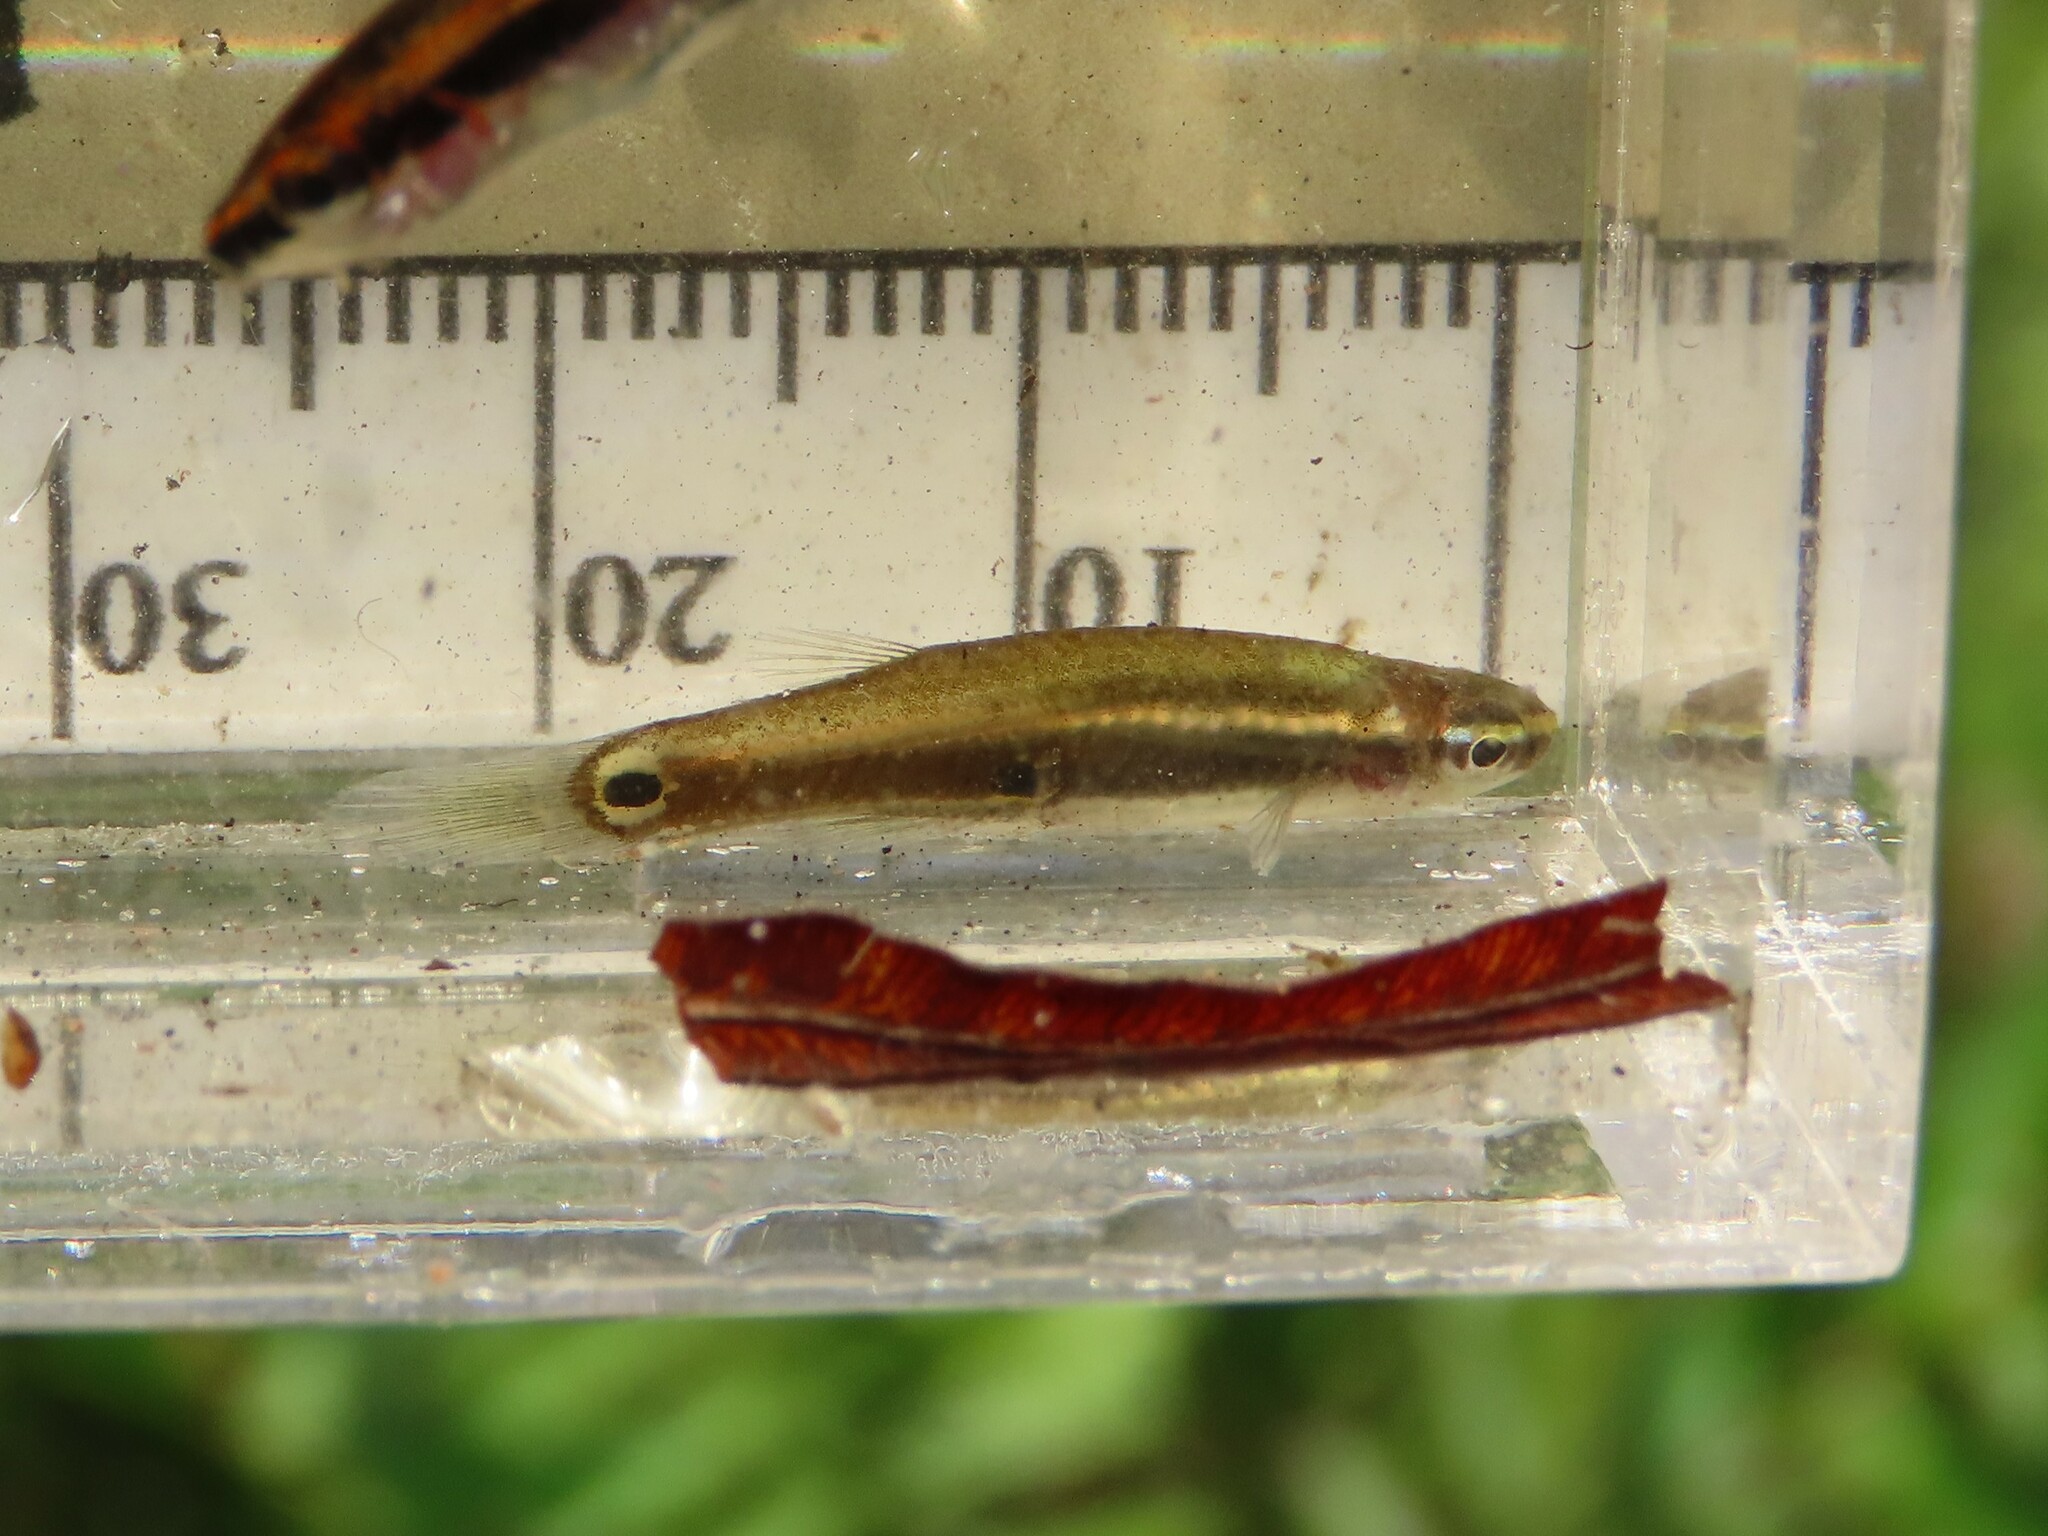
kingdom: Animalia
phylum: Chordata
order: Cyprinodontiformes
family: Fundulidae
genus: Leptolucania
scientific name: Leptolucania ommata
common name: Pygmy killifish
